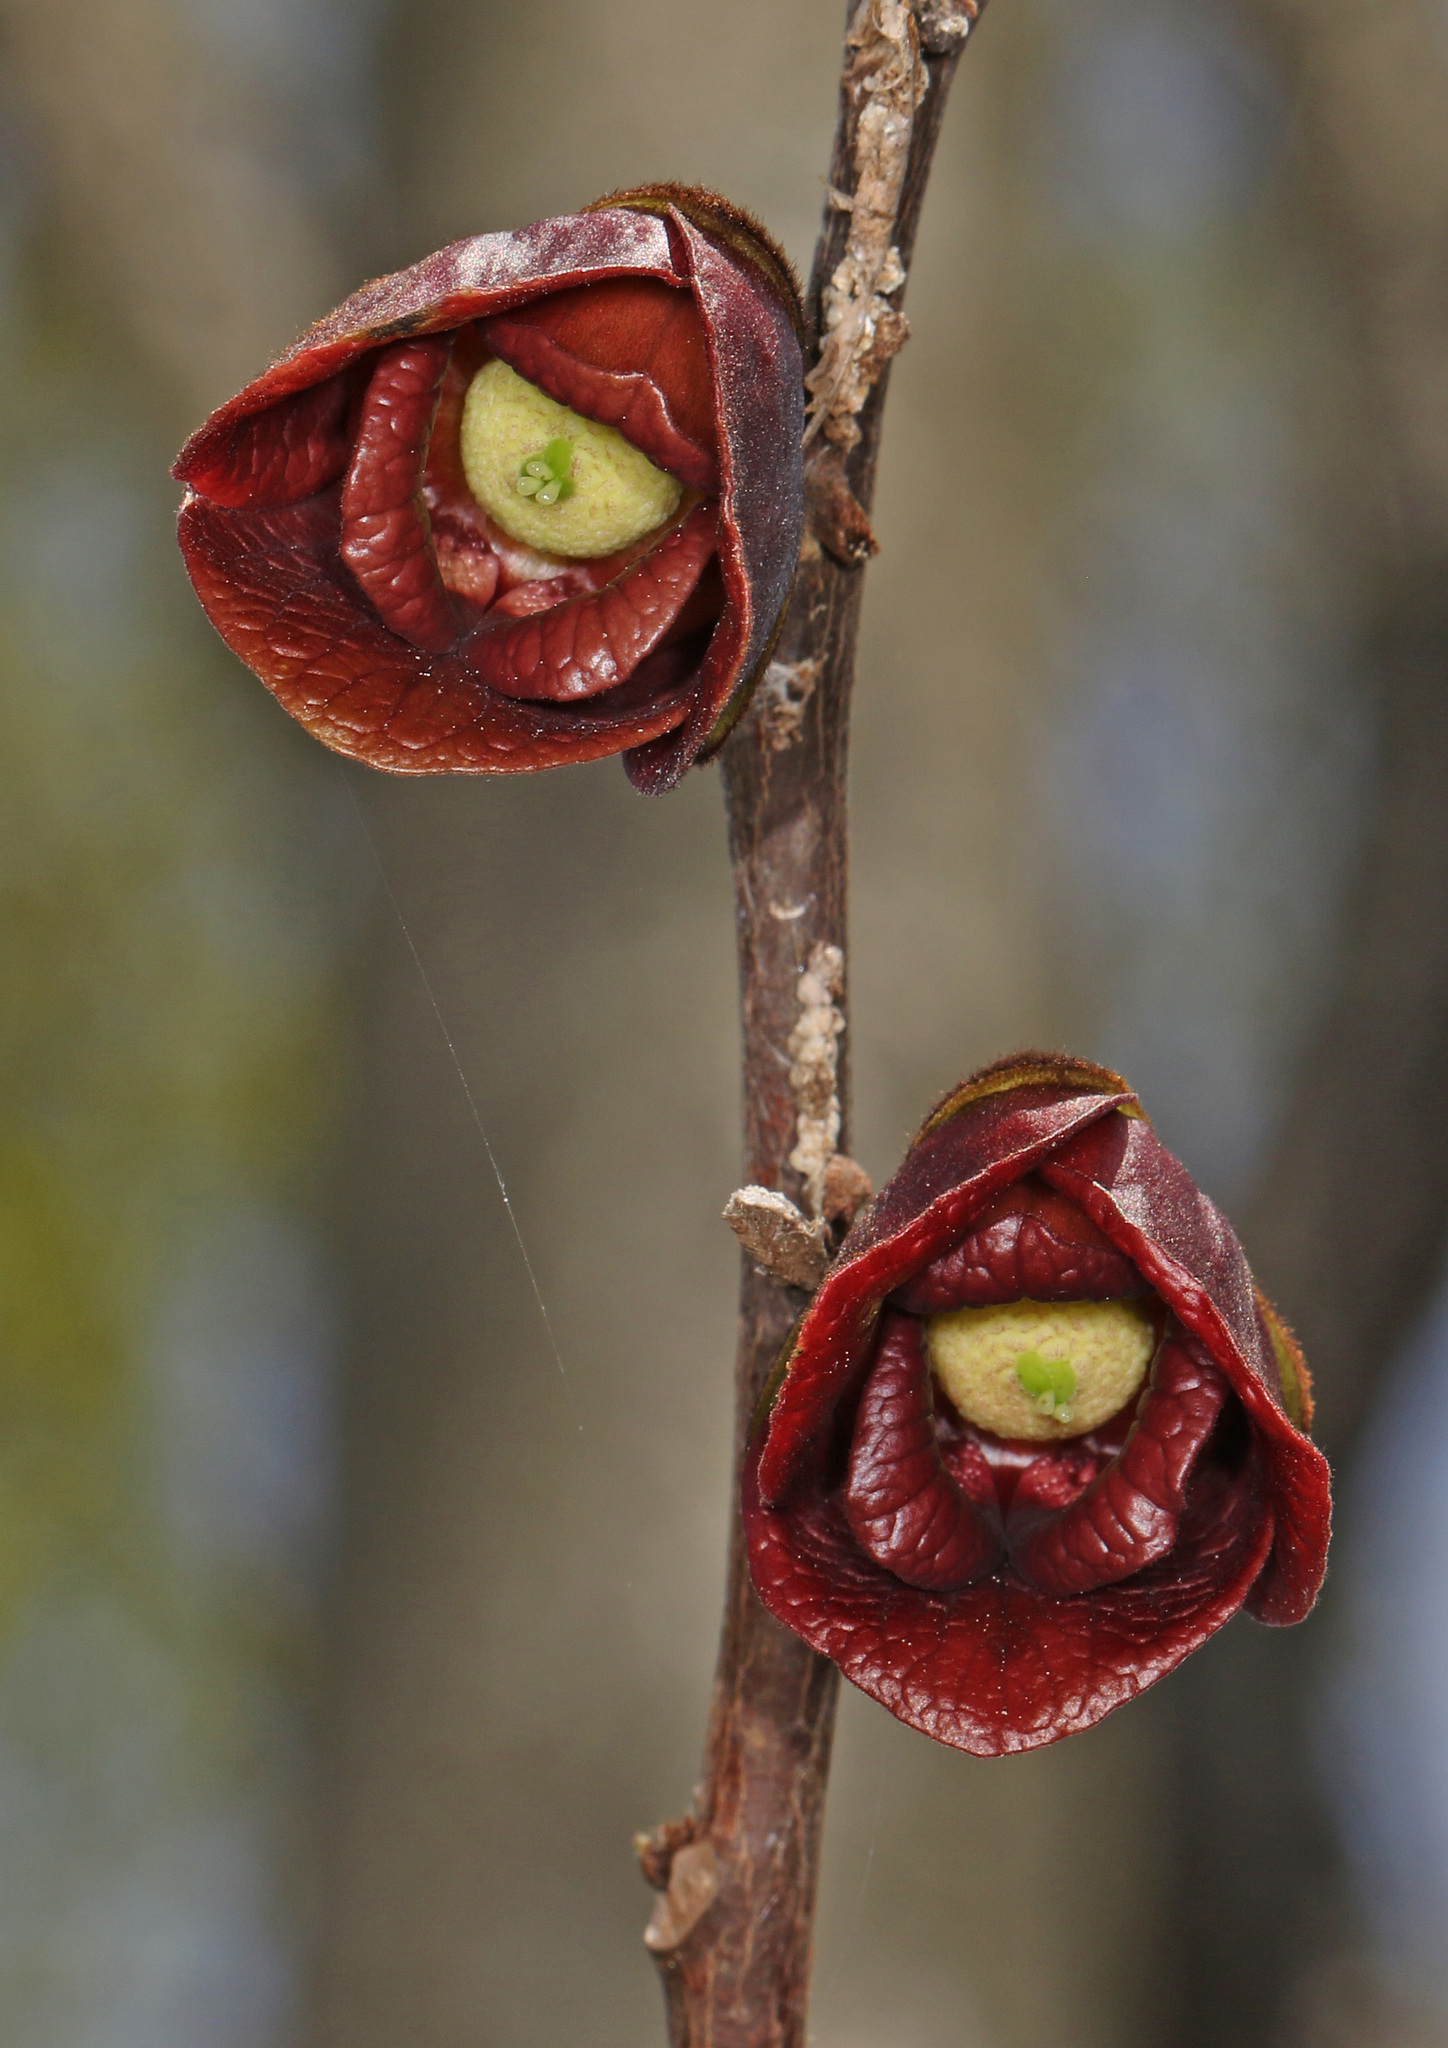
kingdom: Plantae
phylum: Tracheophyta
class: Magnoliopsida
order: Magnoliales
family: Annonaceae
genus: Asimina
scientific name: Asimina triloba
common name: Dog-banana
